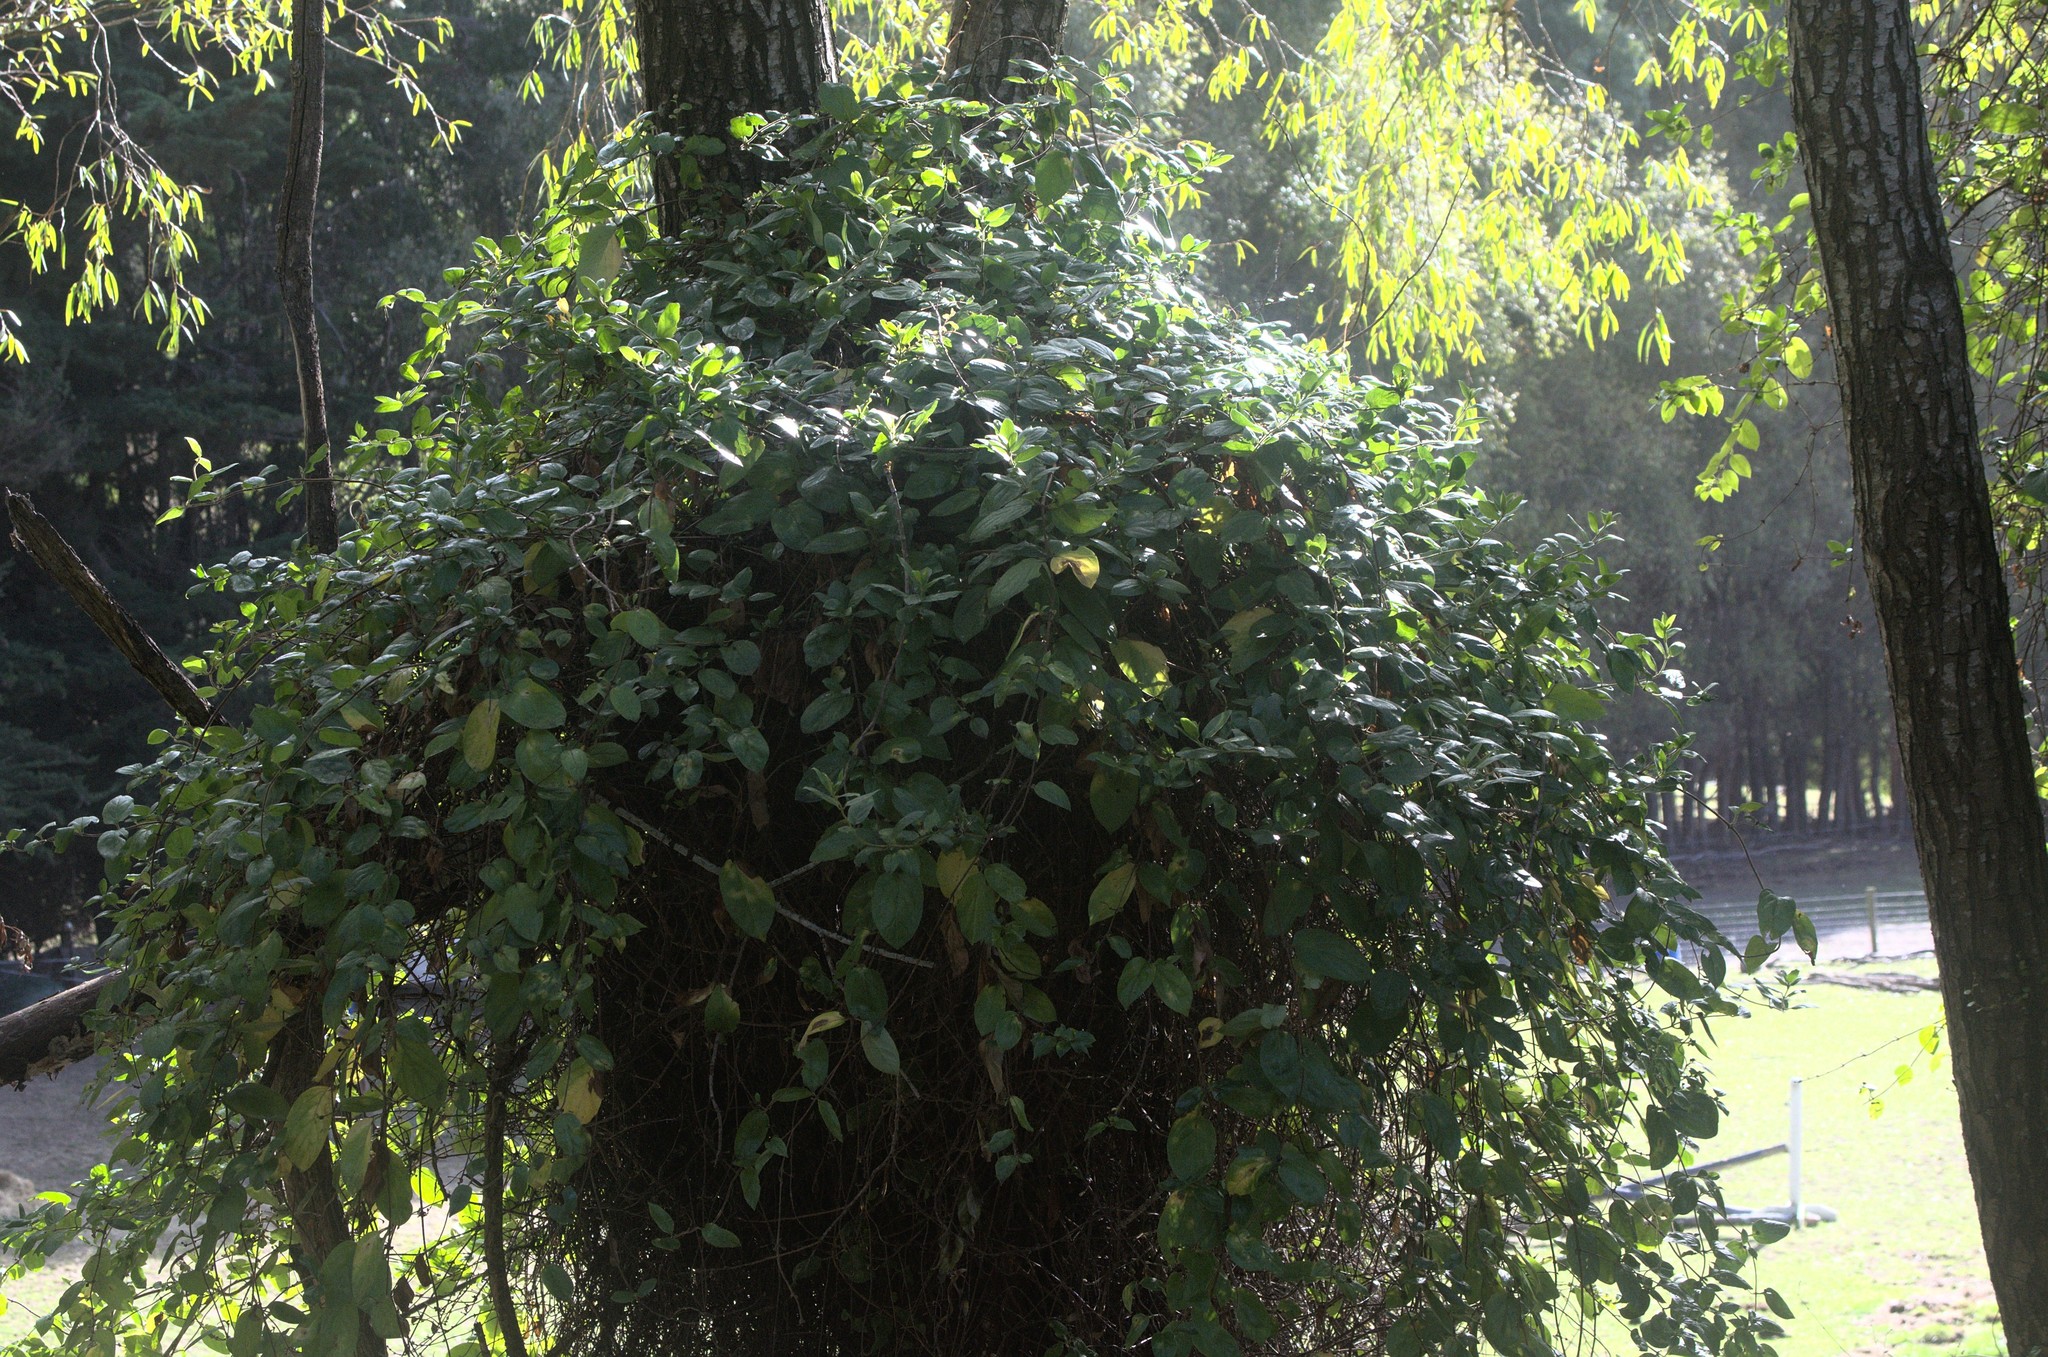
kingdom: Plantae
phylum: Tracheophyta
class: Magnoliopsida
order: Dipsacales
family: Caprifoliaceae
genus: Lonicera
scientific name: Lonicera japonica
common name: Japanese honeysuckle
